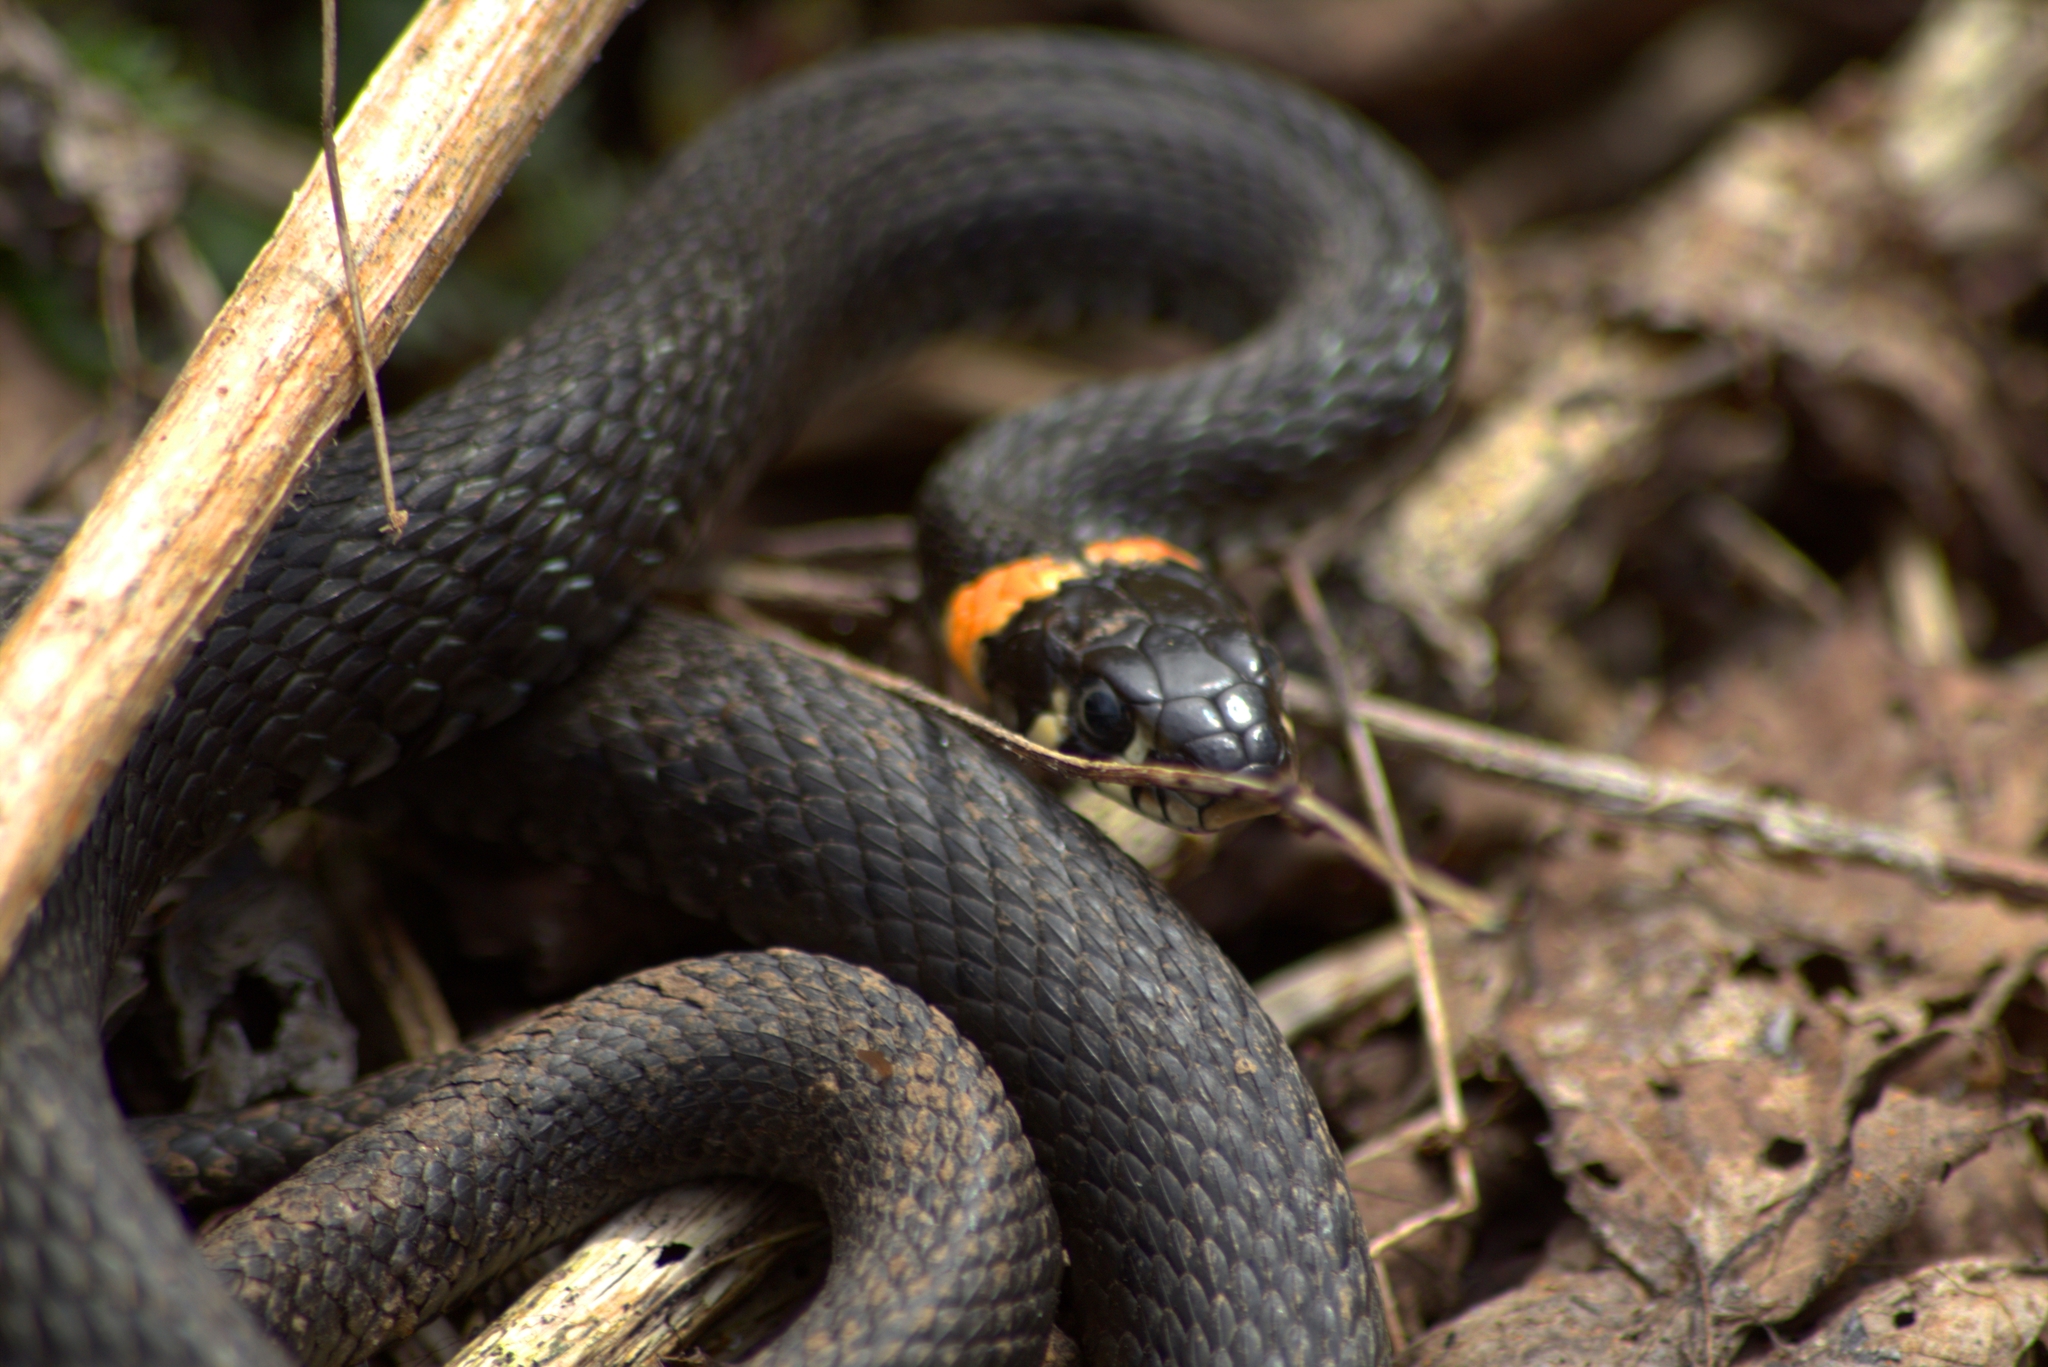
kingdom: Animalia
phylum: Chordata
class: Squamata
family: Colubridae
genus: Natrix
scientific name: Natrix natrix
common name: Grass snake
